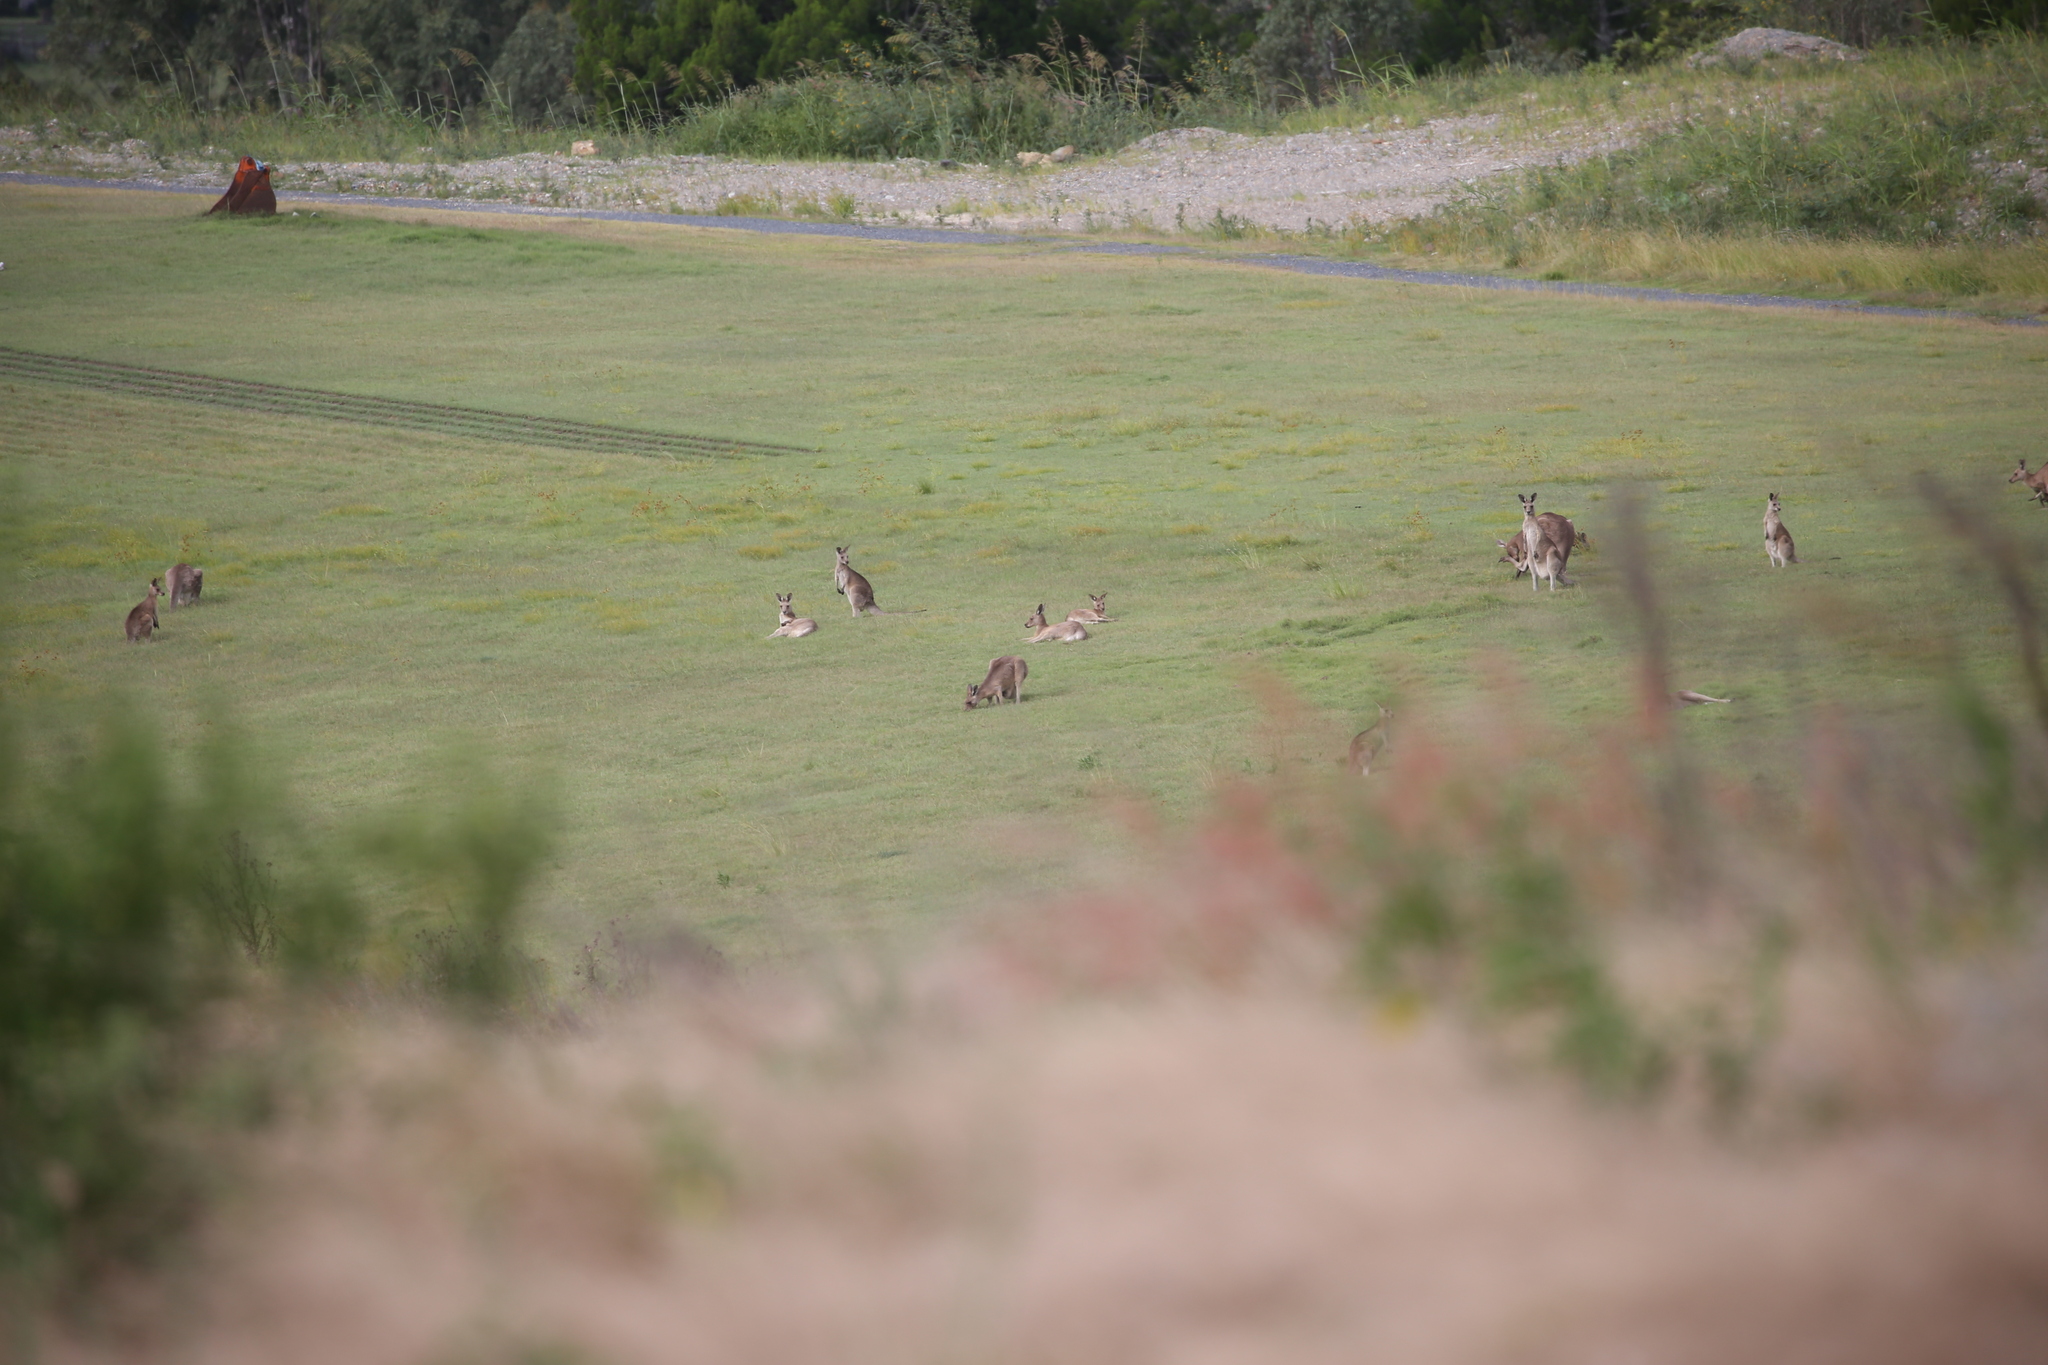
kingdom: Animalia
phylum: Chordata
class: Mammalia
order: Diprotodontia
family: Macropodidae
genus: Macropus
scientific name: Macropus giganteus
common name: Eastern grey kangaroo
